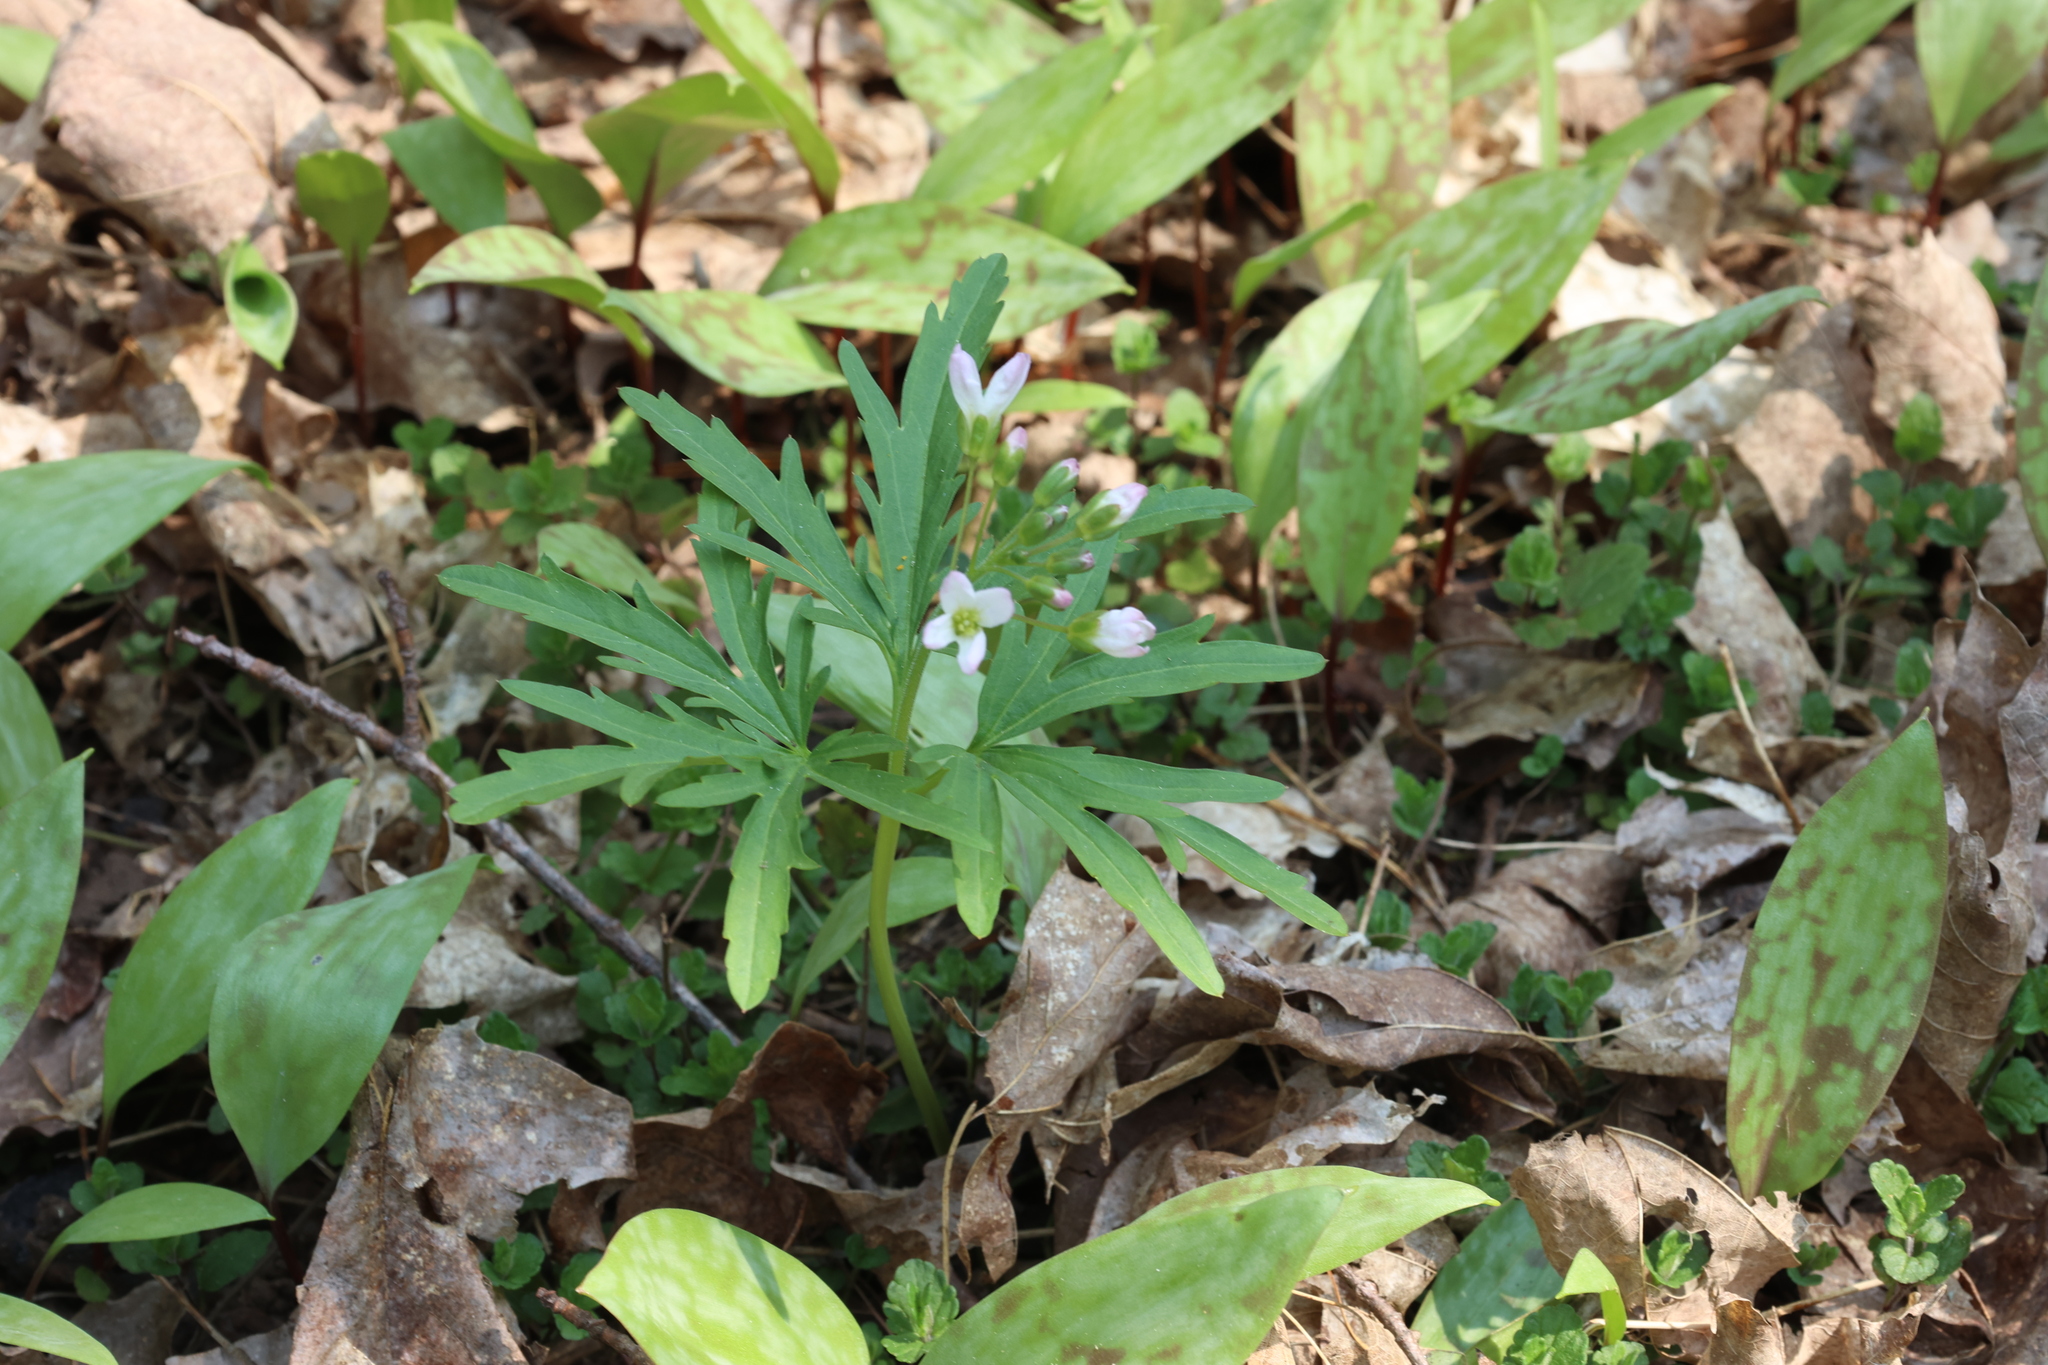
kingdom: Plantae
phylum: Tracheophyta
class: Magnoliopsida
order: Brassicales
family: Brassicaceae
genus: Cardamine
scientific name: Cardamine concatenata
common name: Cut-leaf toothcup
